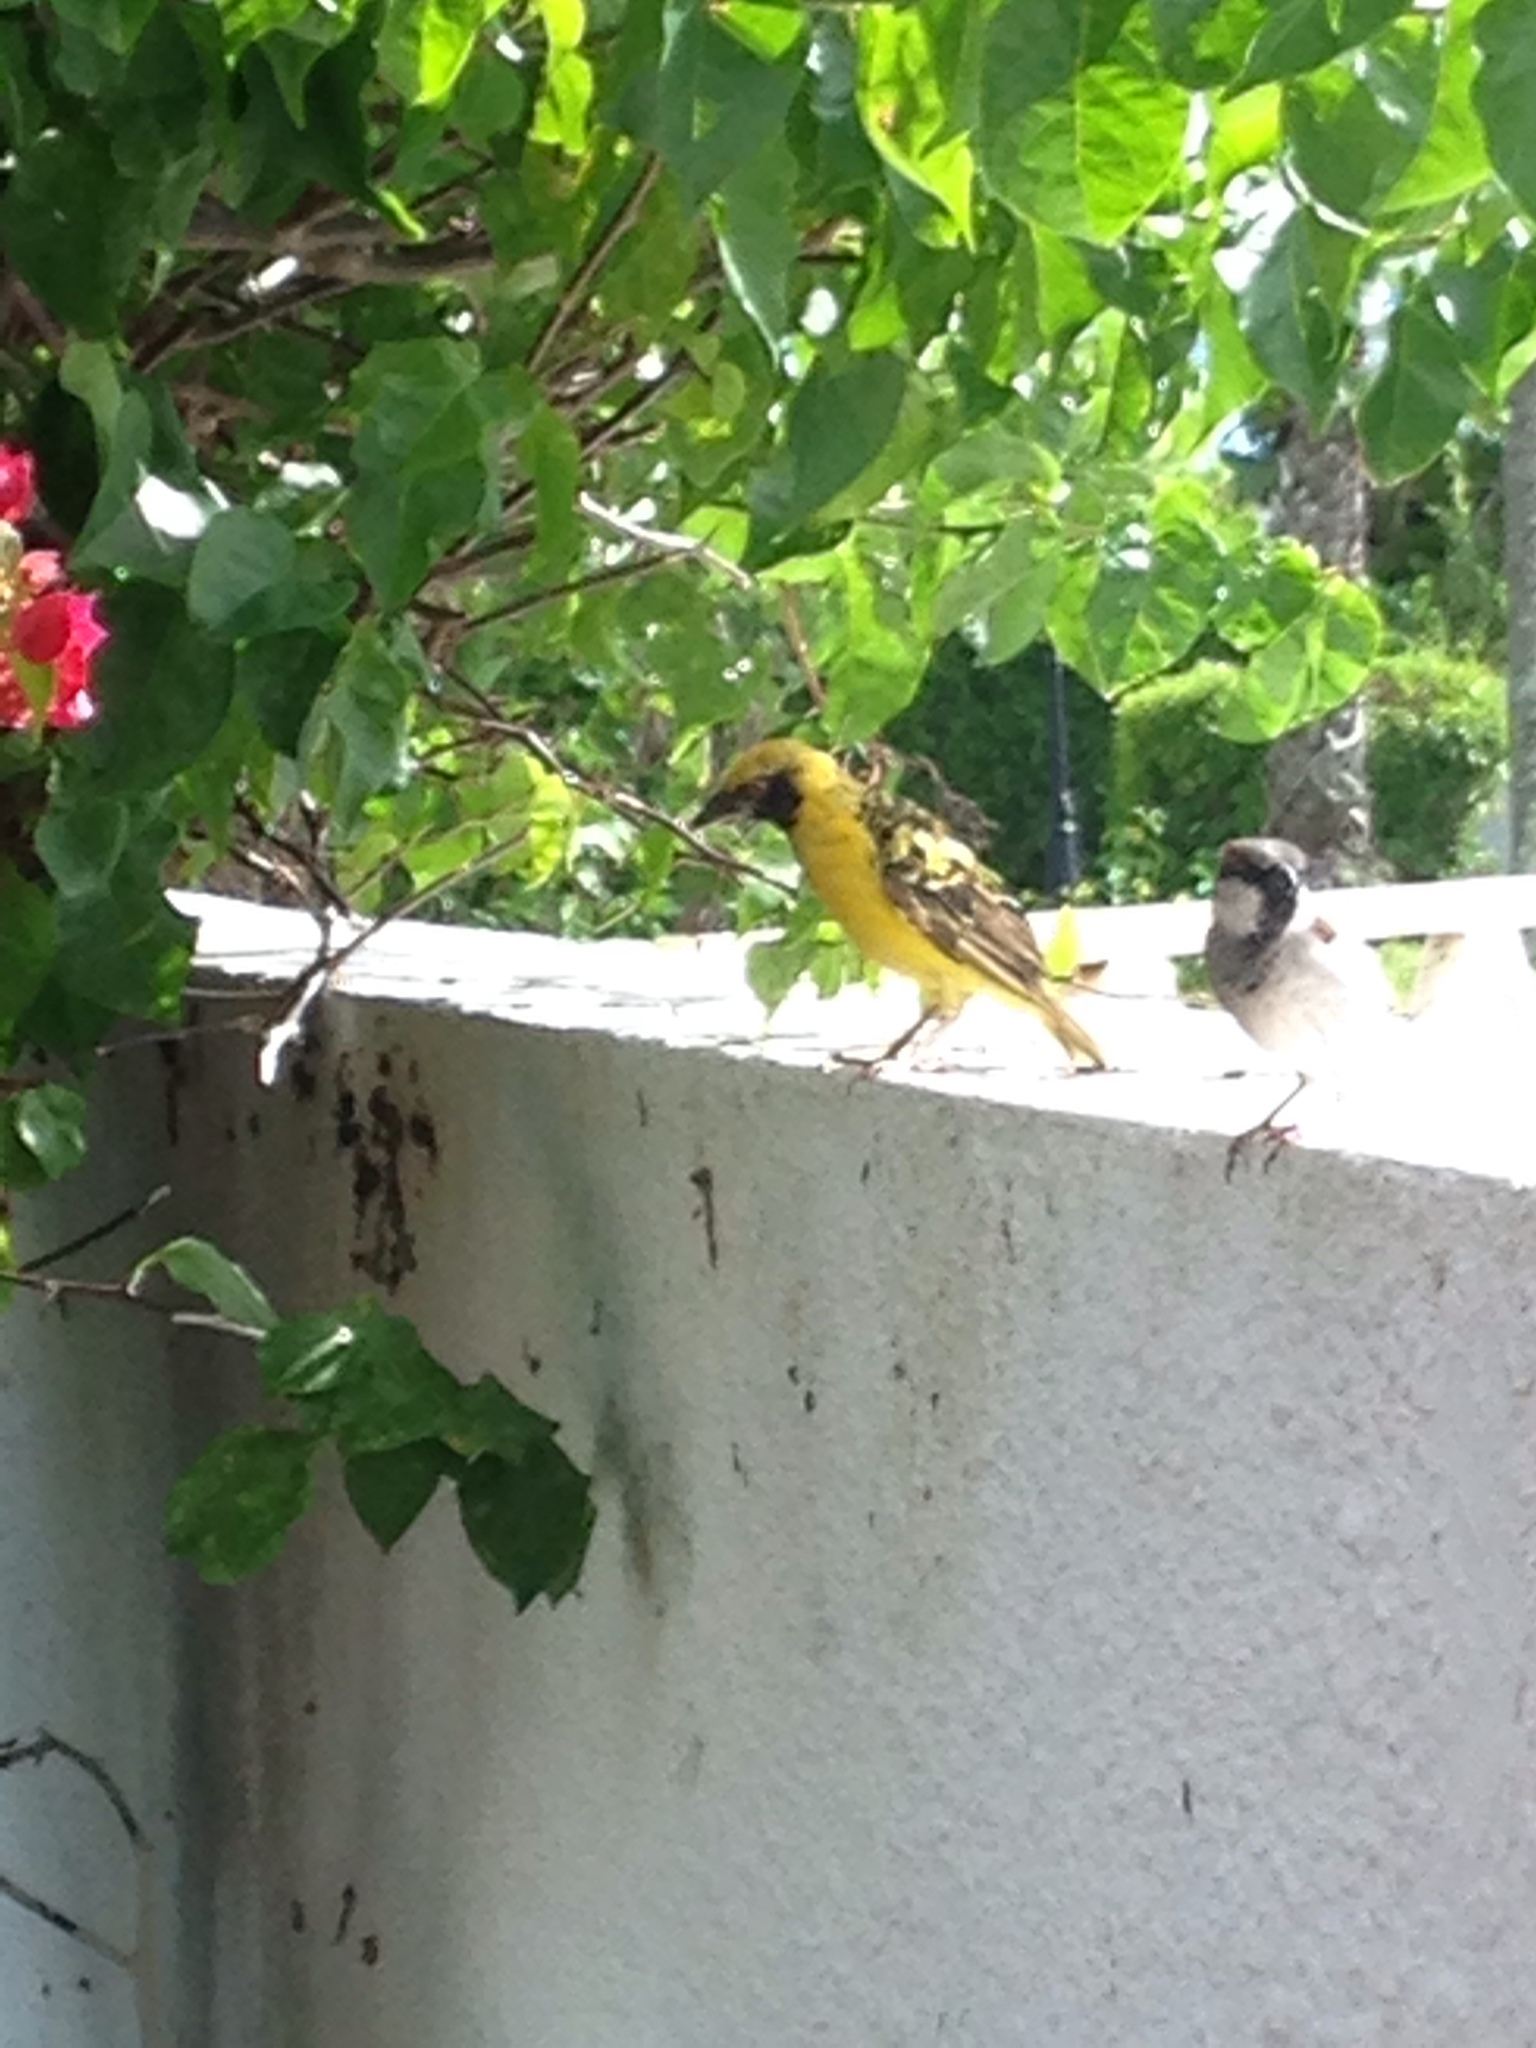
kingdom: Animalia
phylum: Chordata
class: Aves
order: Passeriformes
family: Ploceidae
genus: Ploceus
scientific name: Ploceus cucullatus
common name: Village weaver
